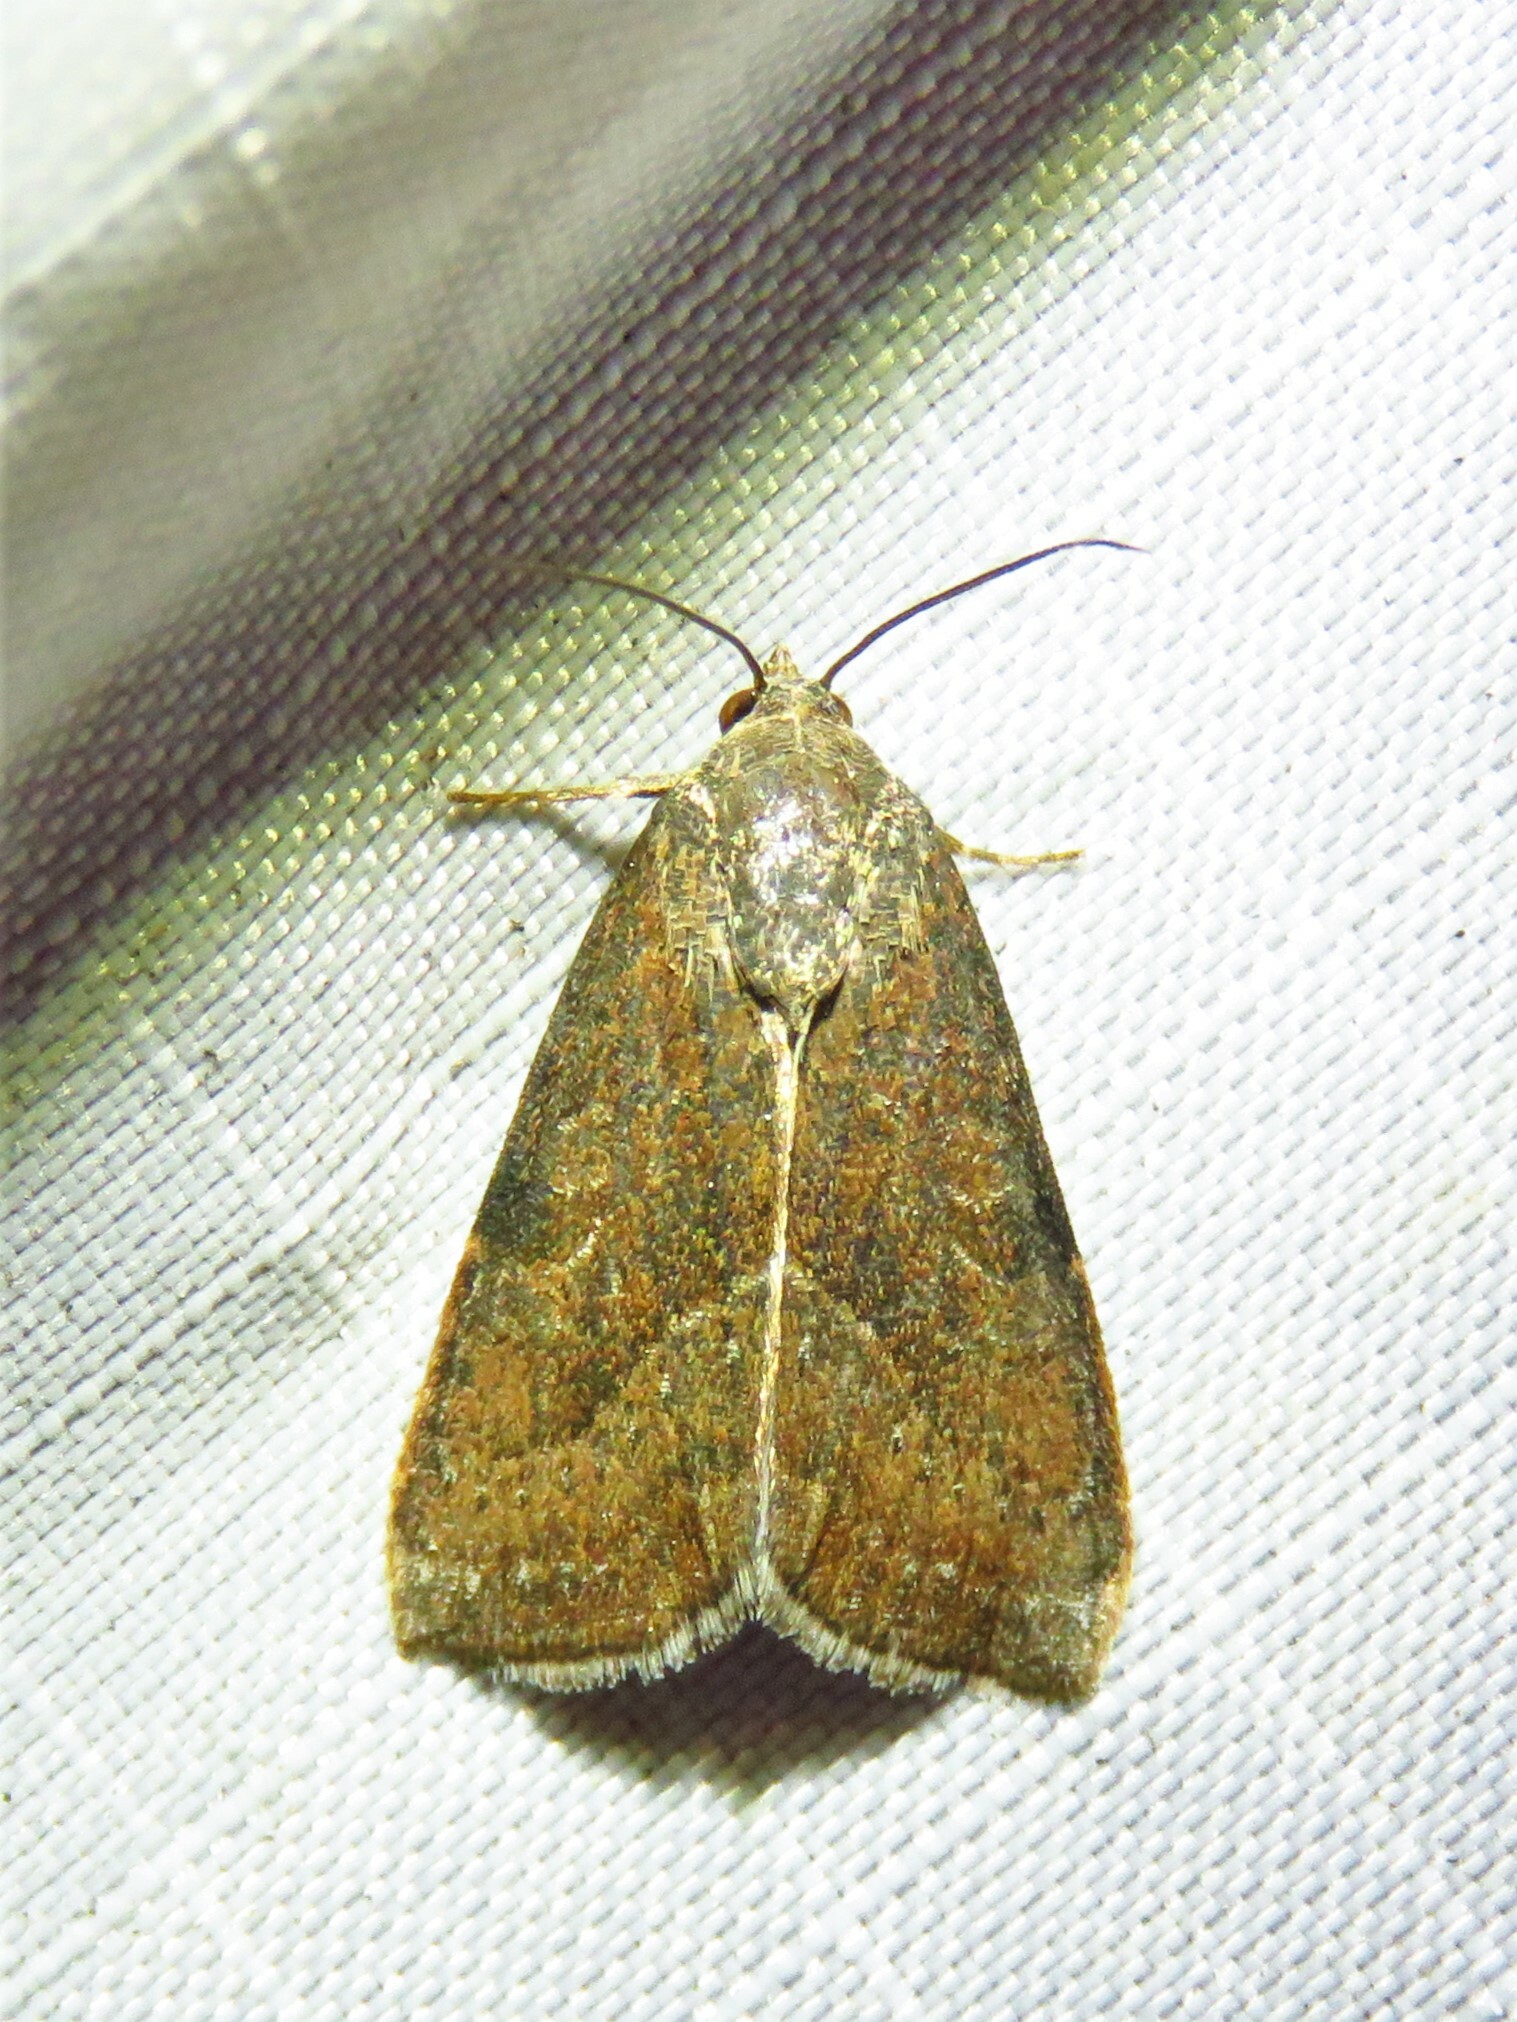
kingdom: Animalia
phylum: Arthropoda
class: Insecta
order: Lepidoptera
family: Noctuidae
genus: Galgula
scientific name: Galgula partita
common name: Wedgeling
